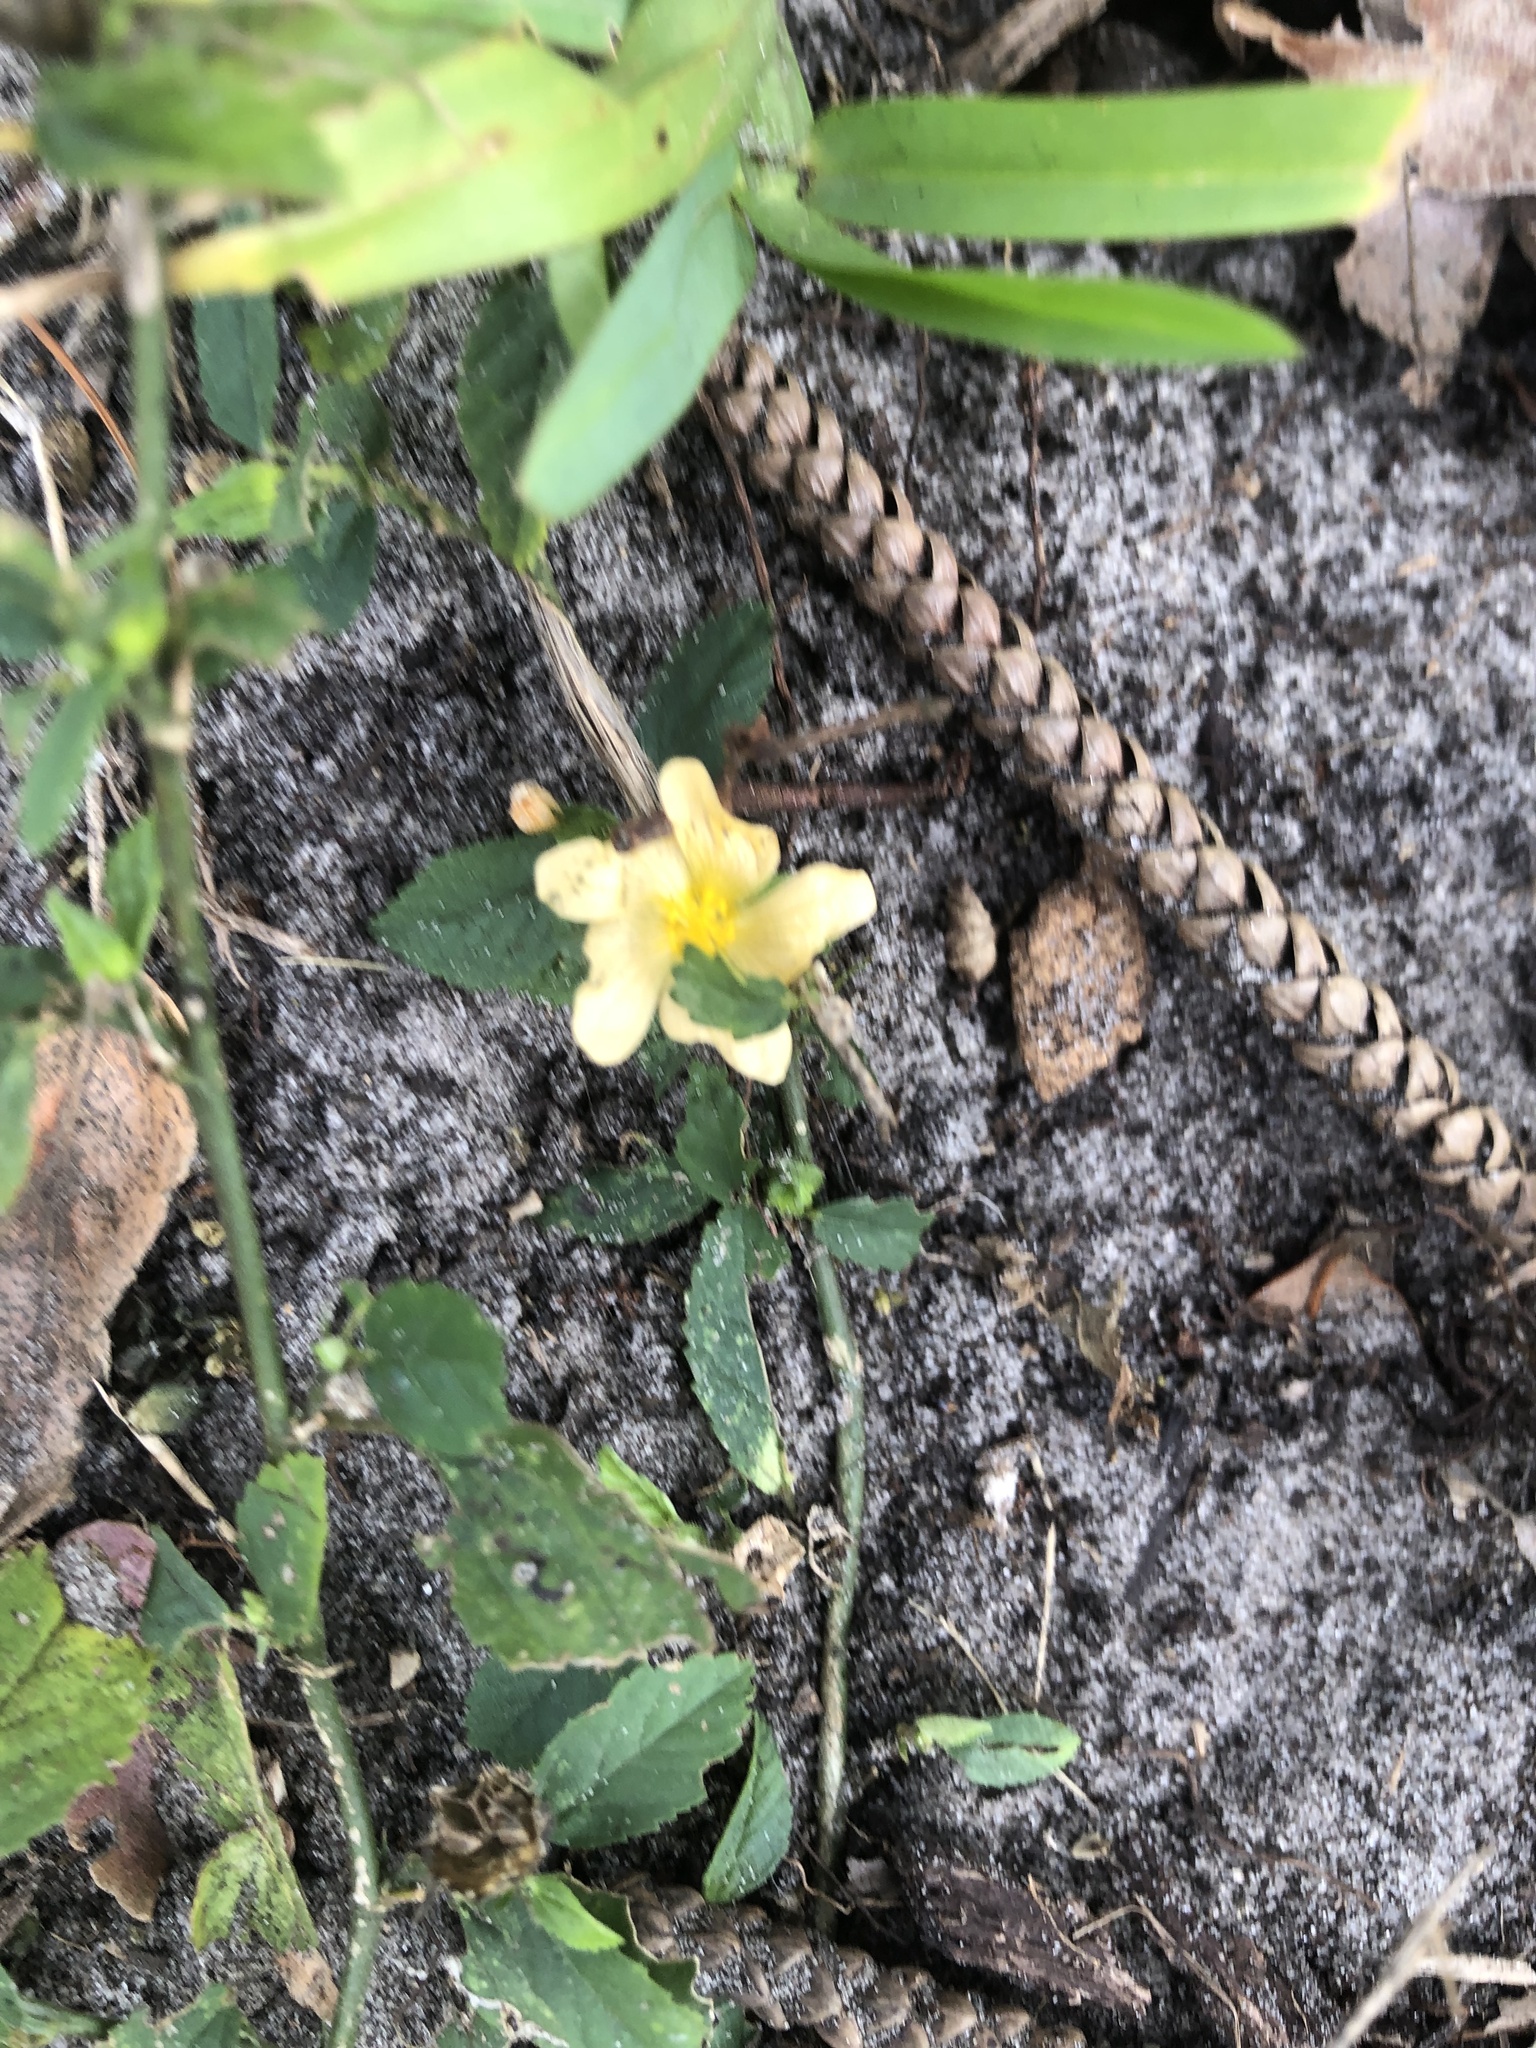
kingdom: Plantae
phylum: Tracheophyta
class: Magnoliopsida
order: Malvales
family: Malvaceae
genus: Sida
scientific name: Sida ulmifolia
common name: Broom weed
